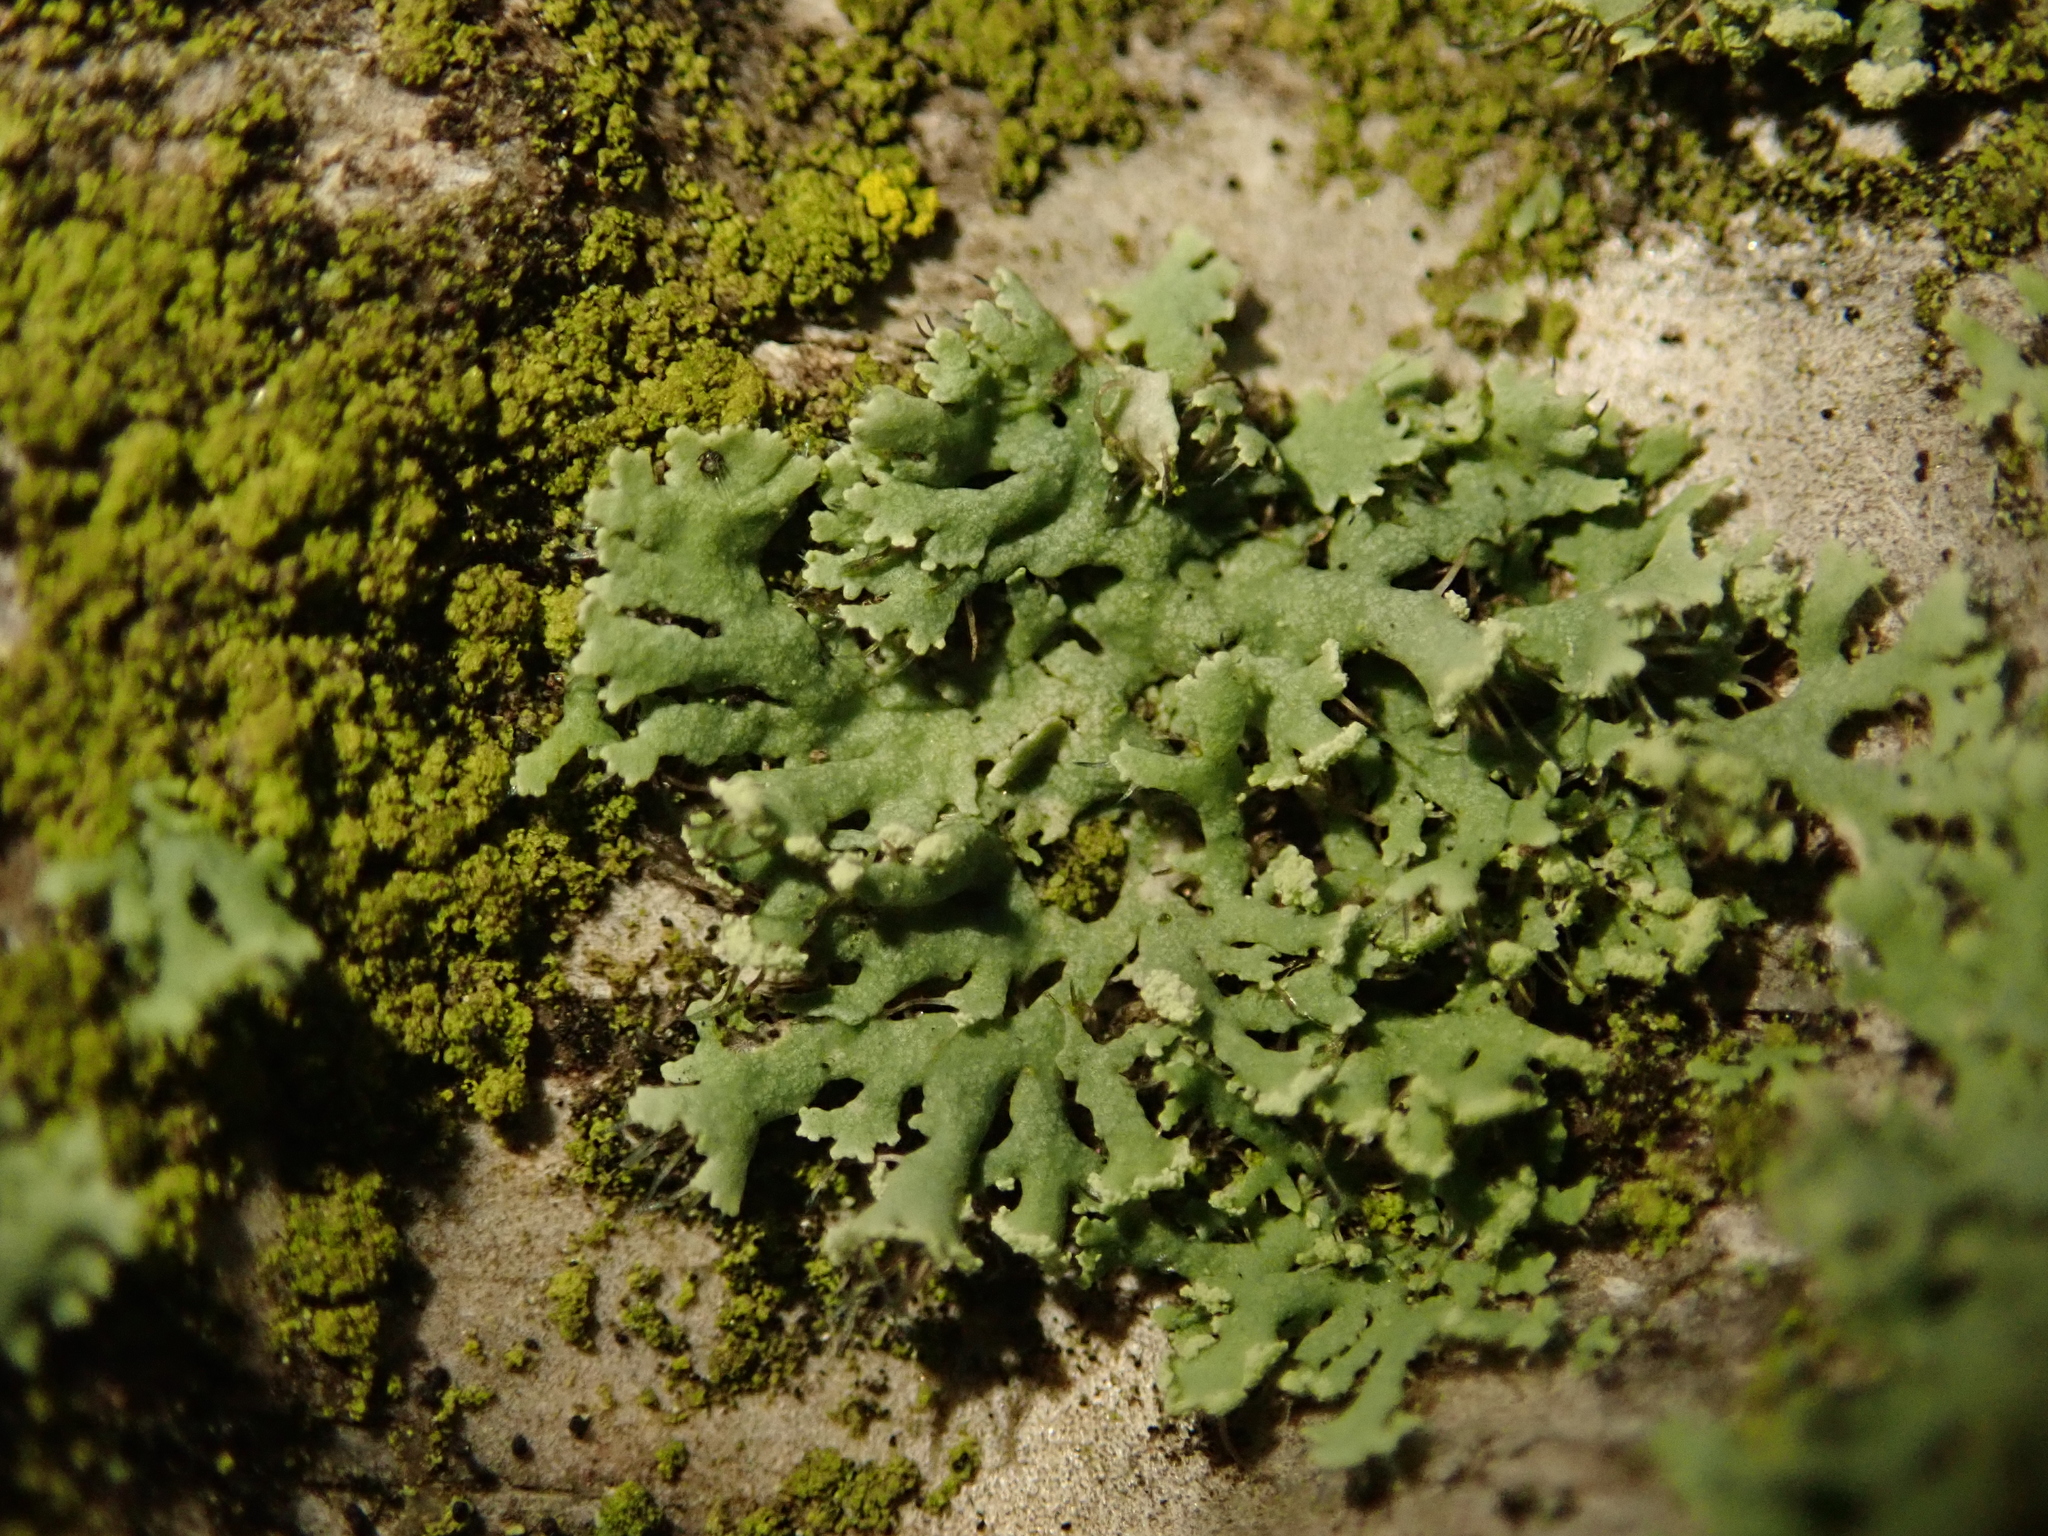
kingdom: Fungi
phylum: Ascomycota
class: Lecanoromycetes
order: Caliciales
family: Physciaceae
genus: Physcia
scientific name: Physcia tenella
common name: Fringed rosette lichen
